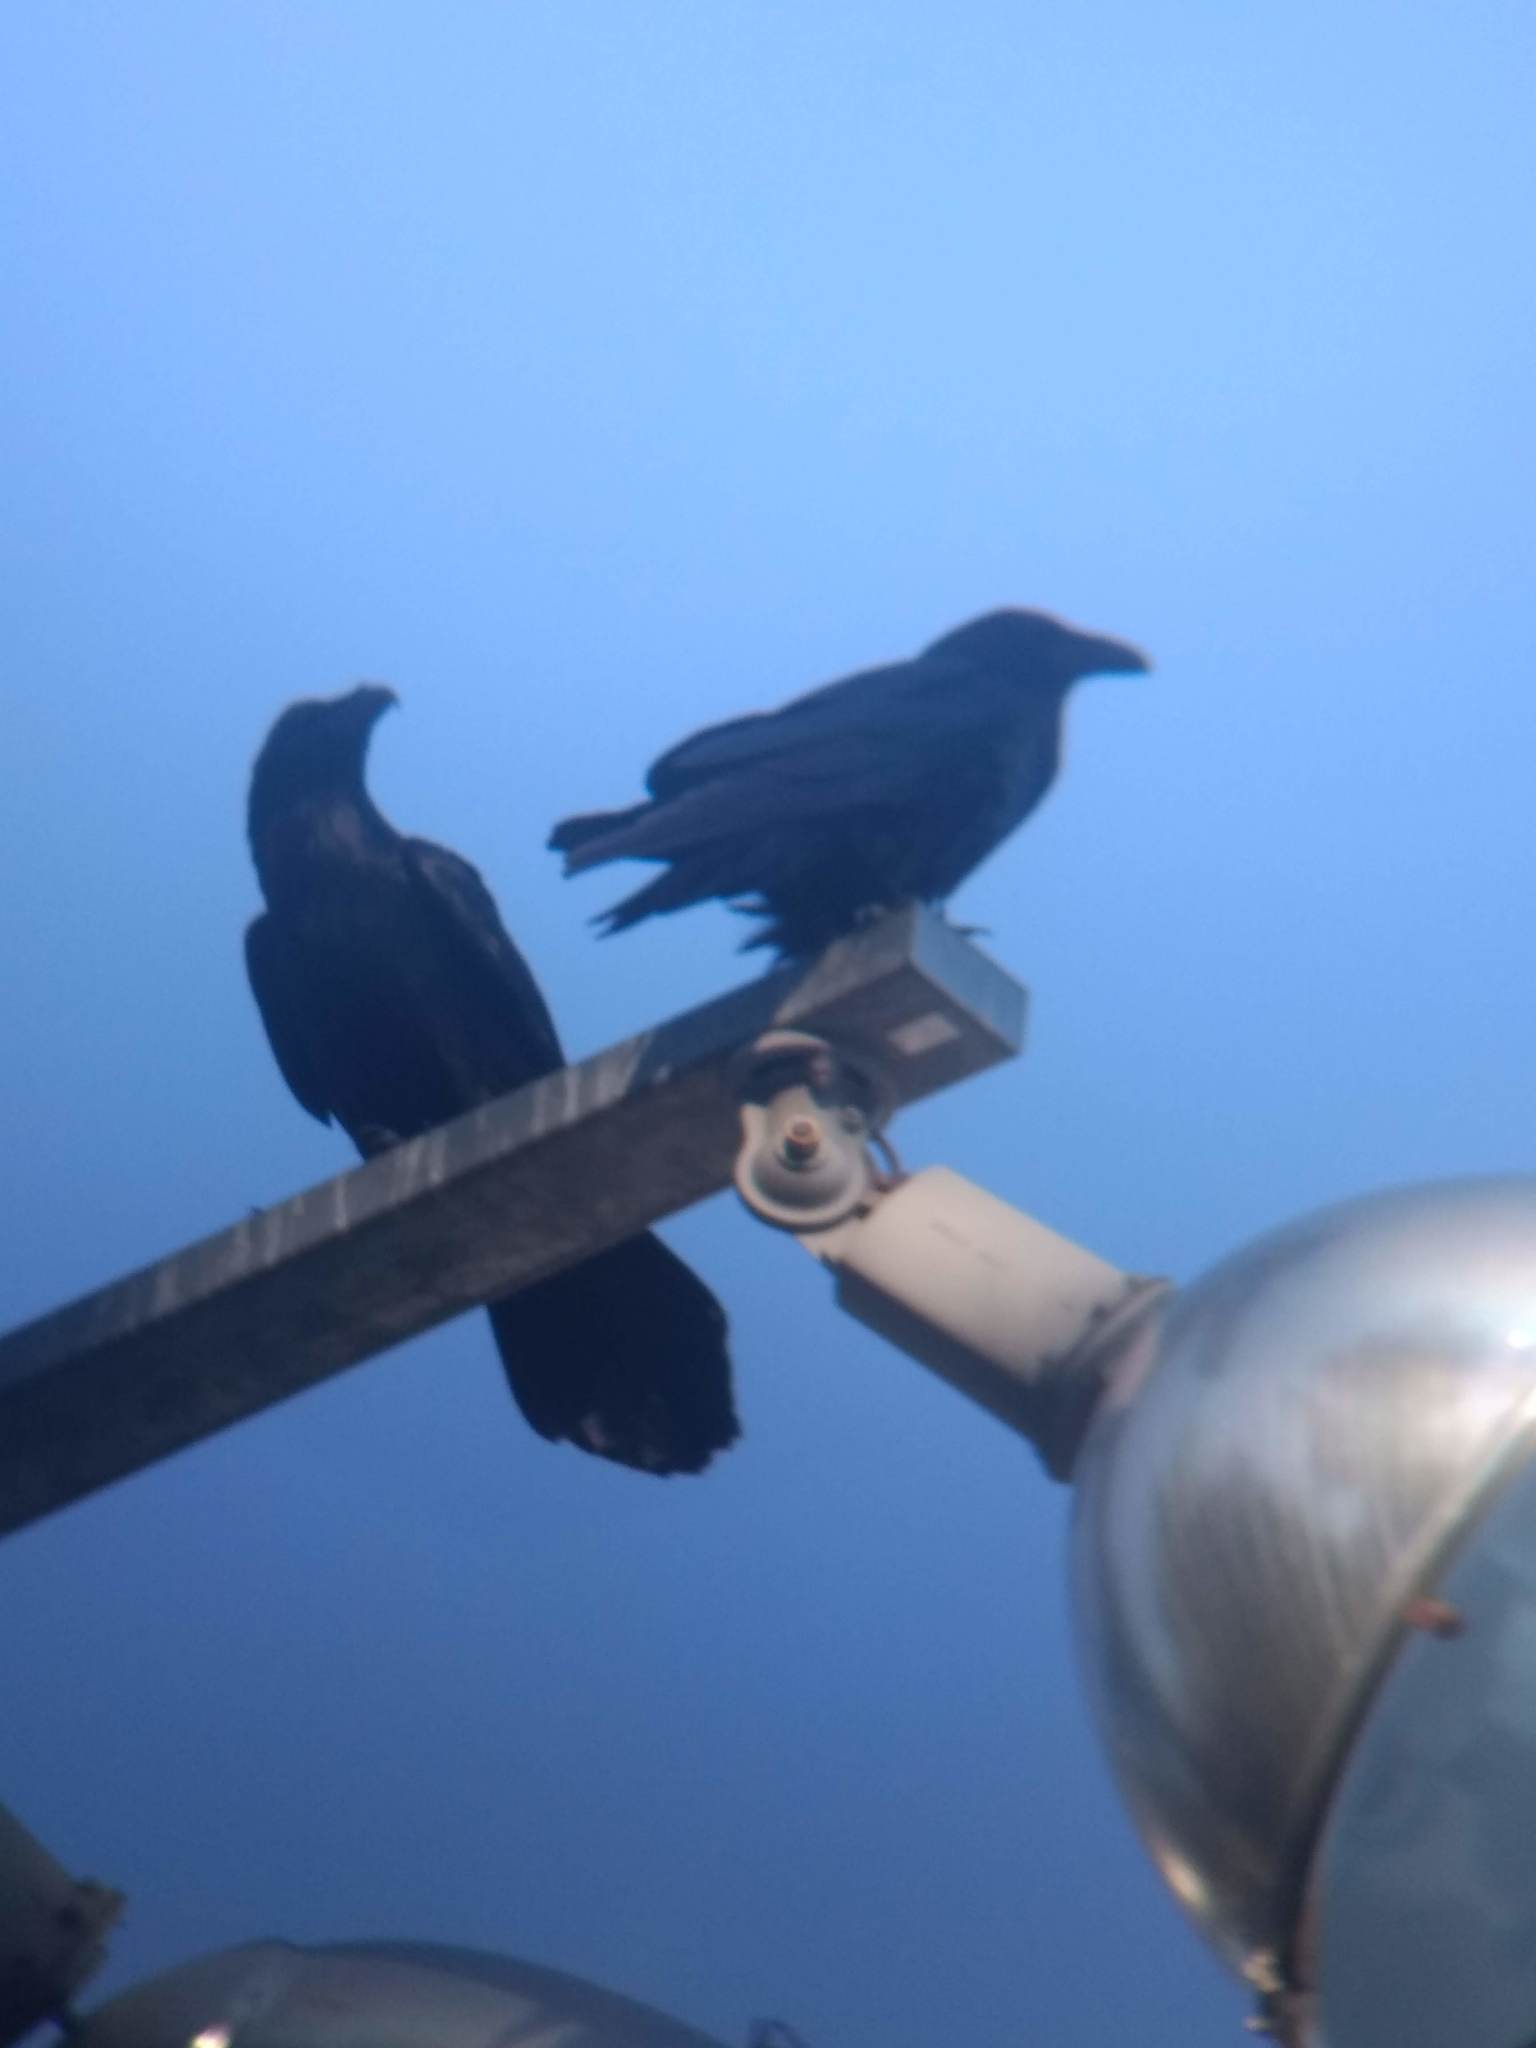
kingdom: Animalia
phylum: Chordata
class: Aves
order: Passeriformes
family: Corvidae
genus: Corvus
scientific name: Corvus corax
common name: Common raven
